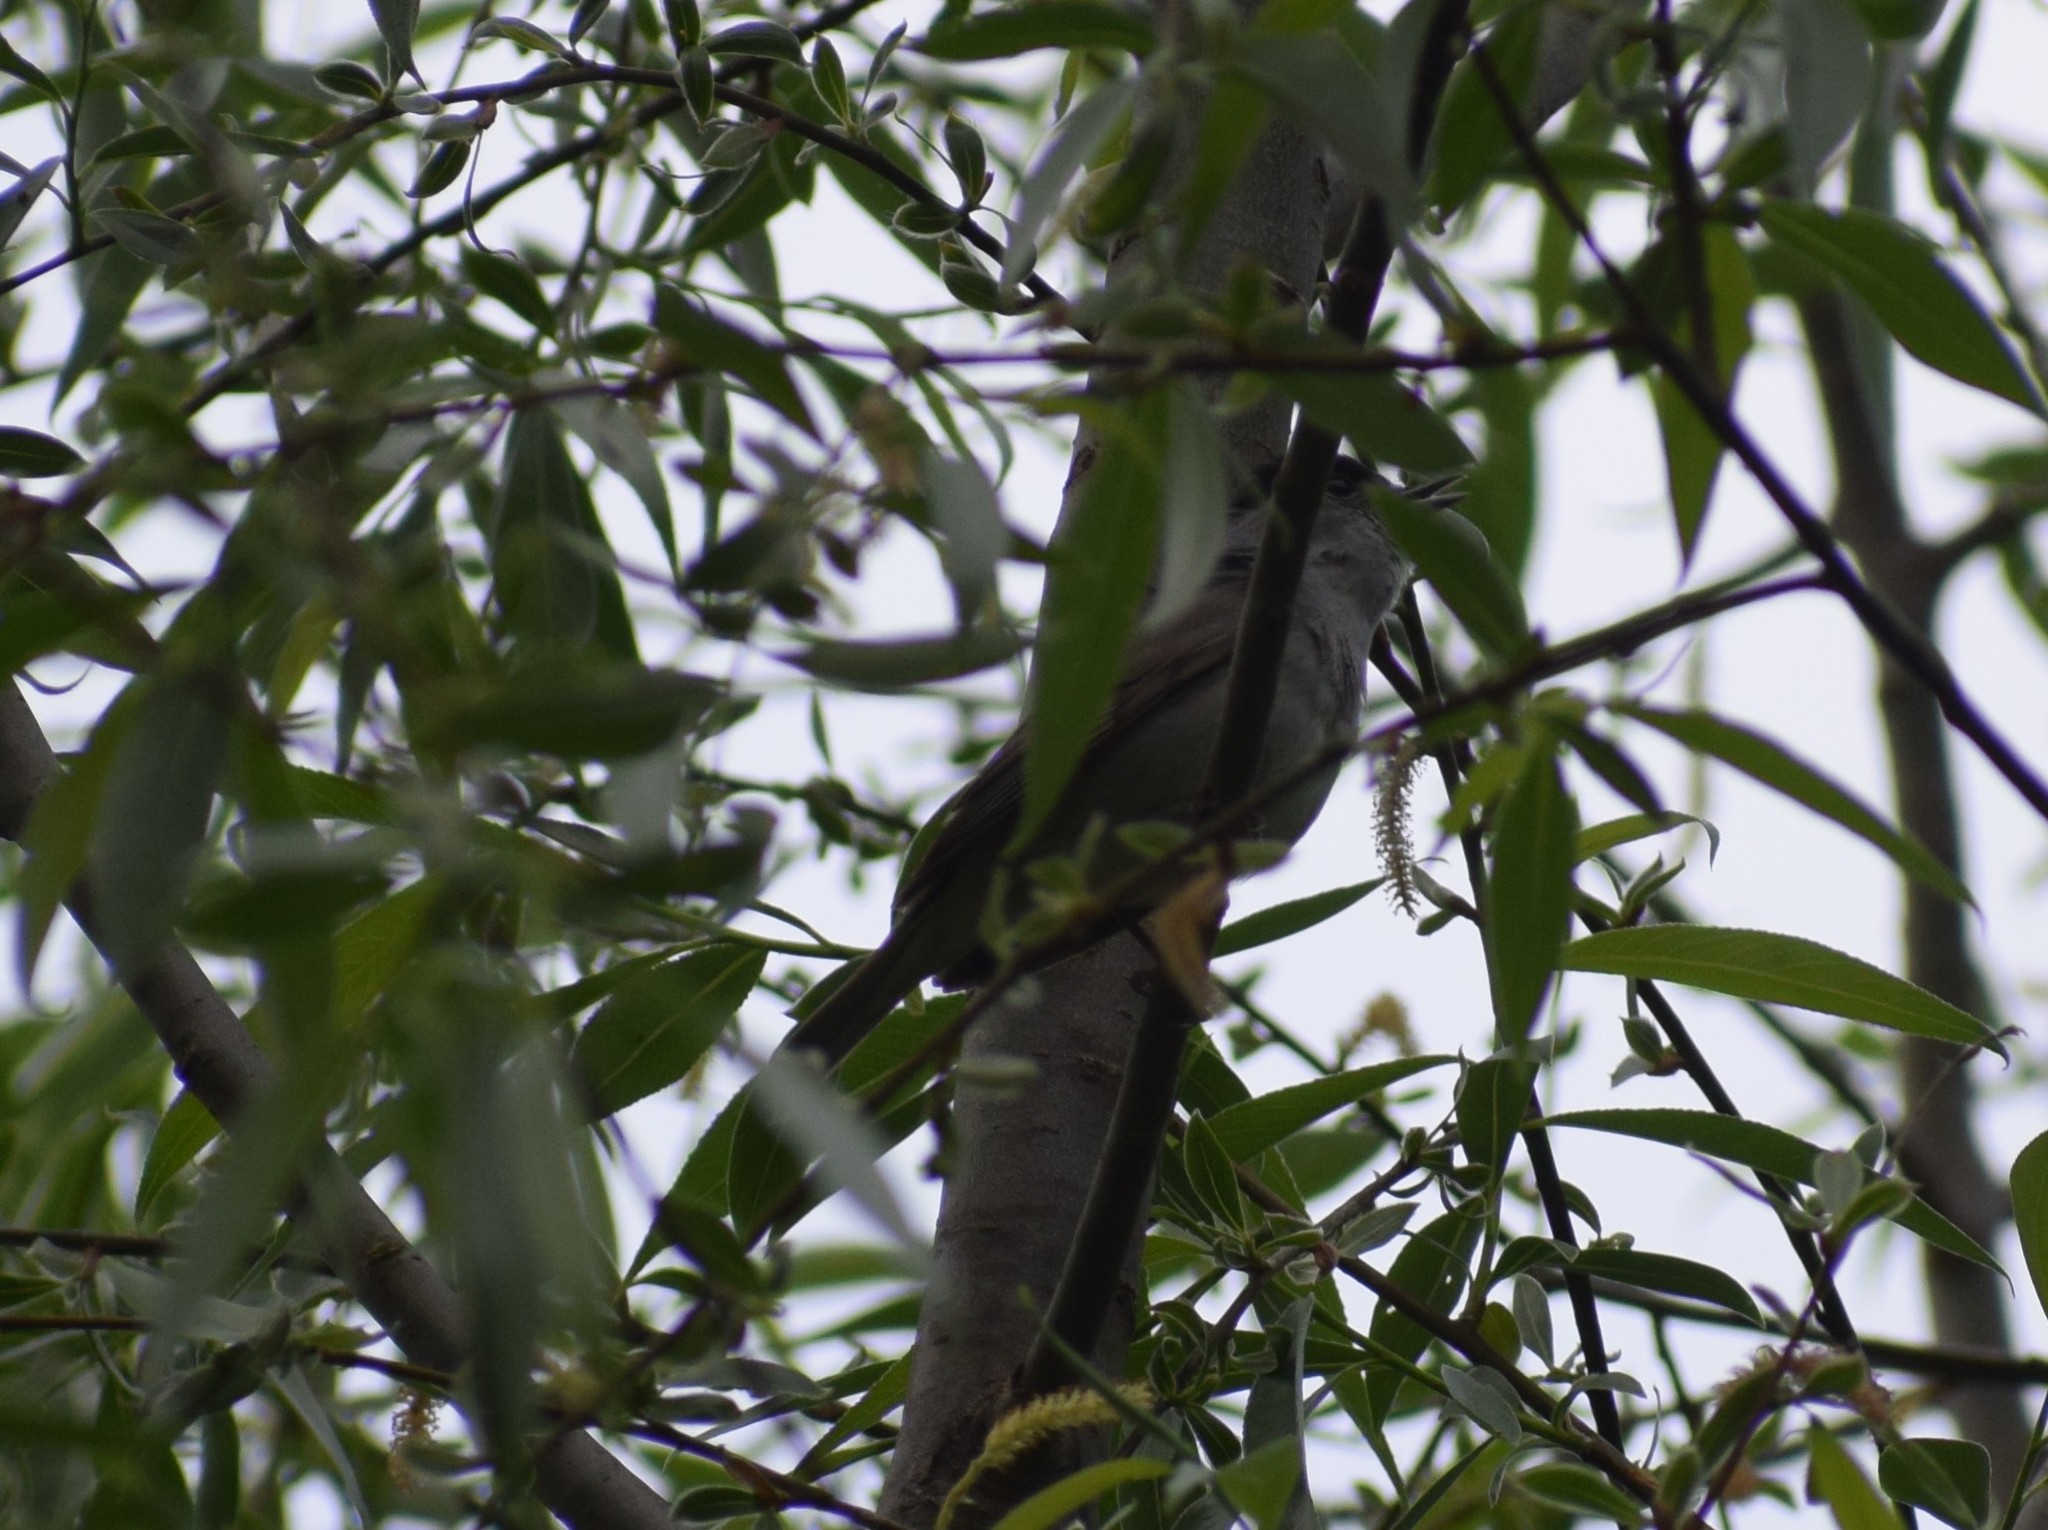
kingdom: Animalia
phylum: Chordata
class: Aves
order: Passeriformes
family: Sylviidae
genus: Sylvia
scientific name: Sylvia atricapilla
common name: Eurasian blackcap
